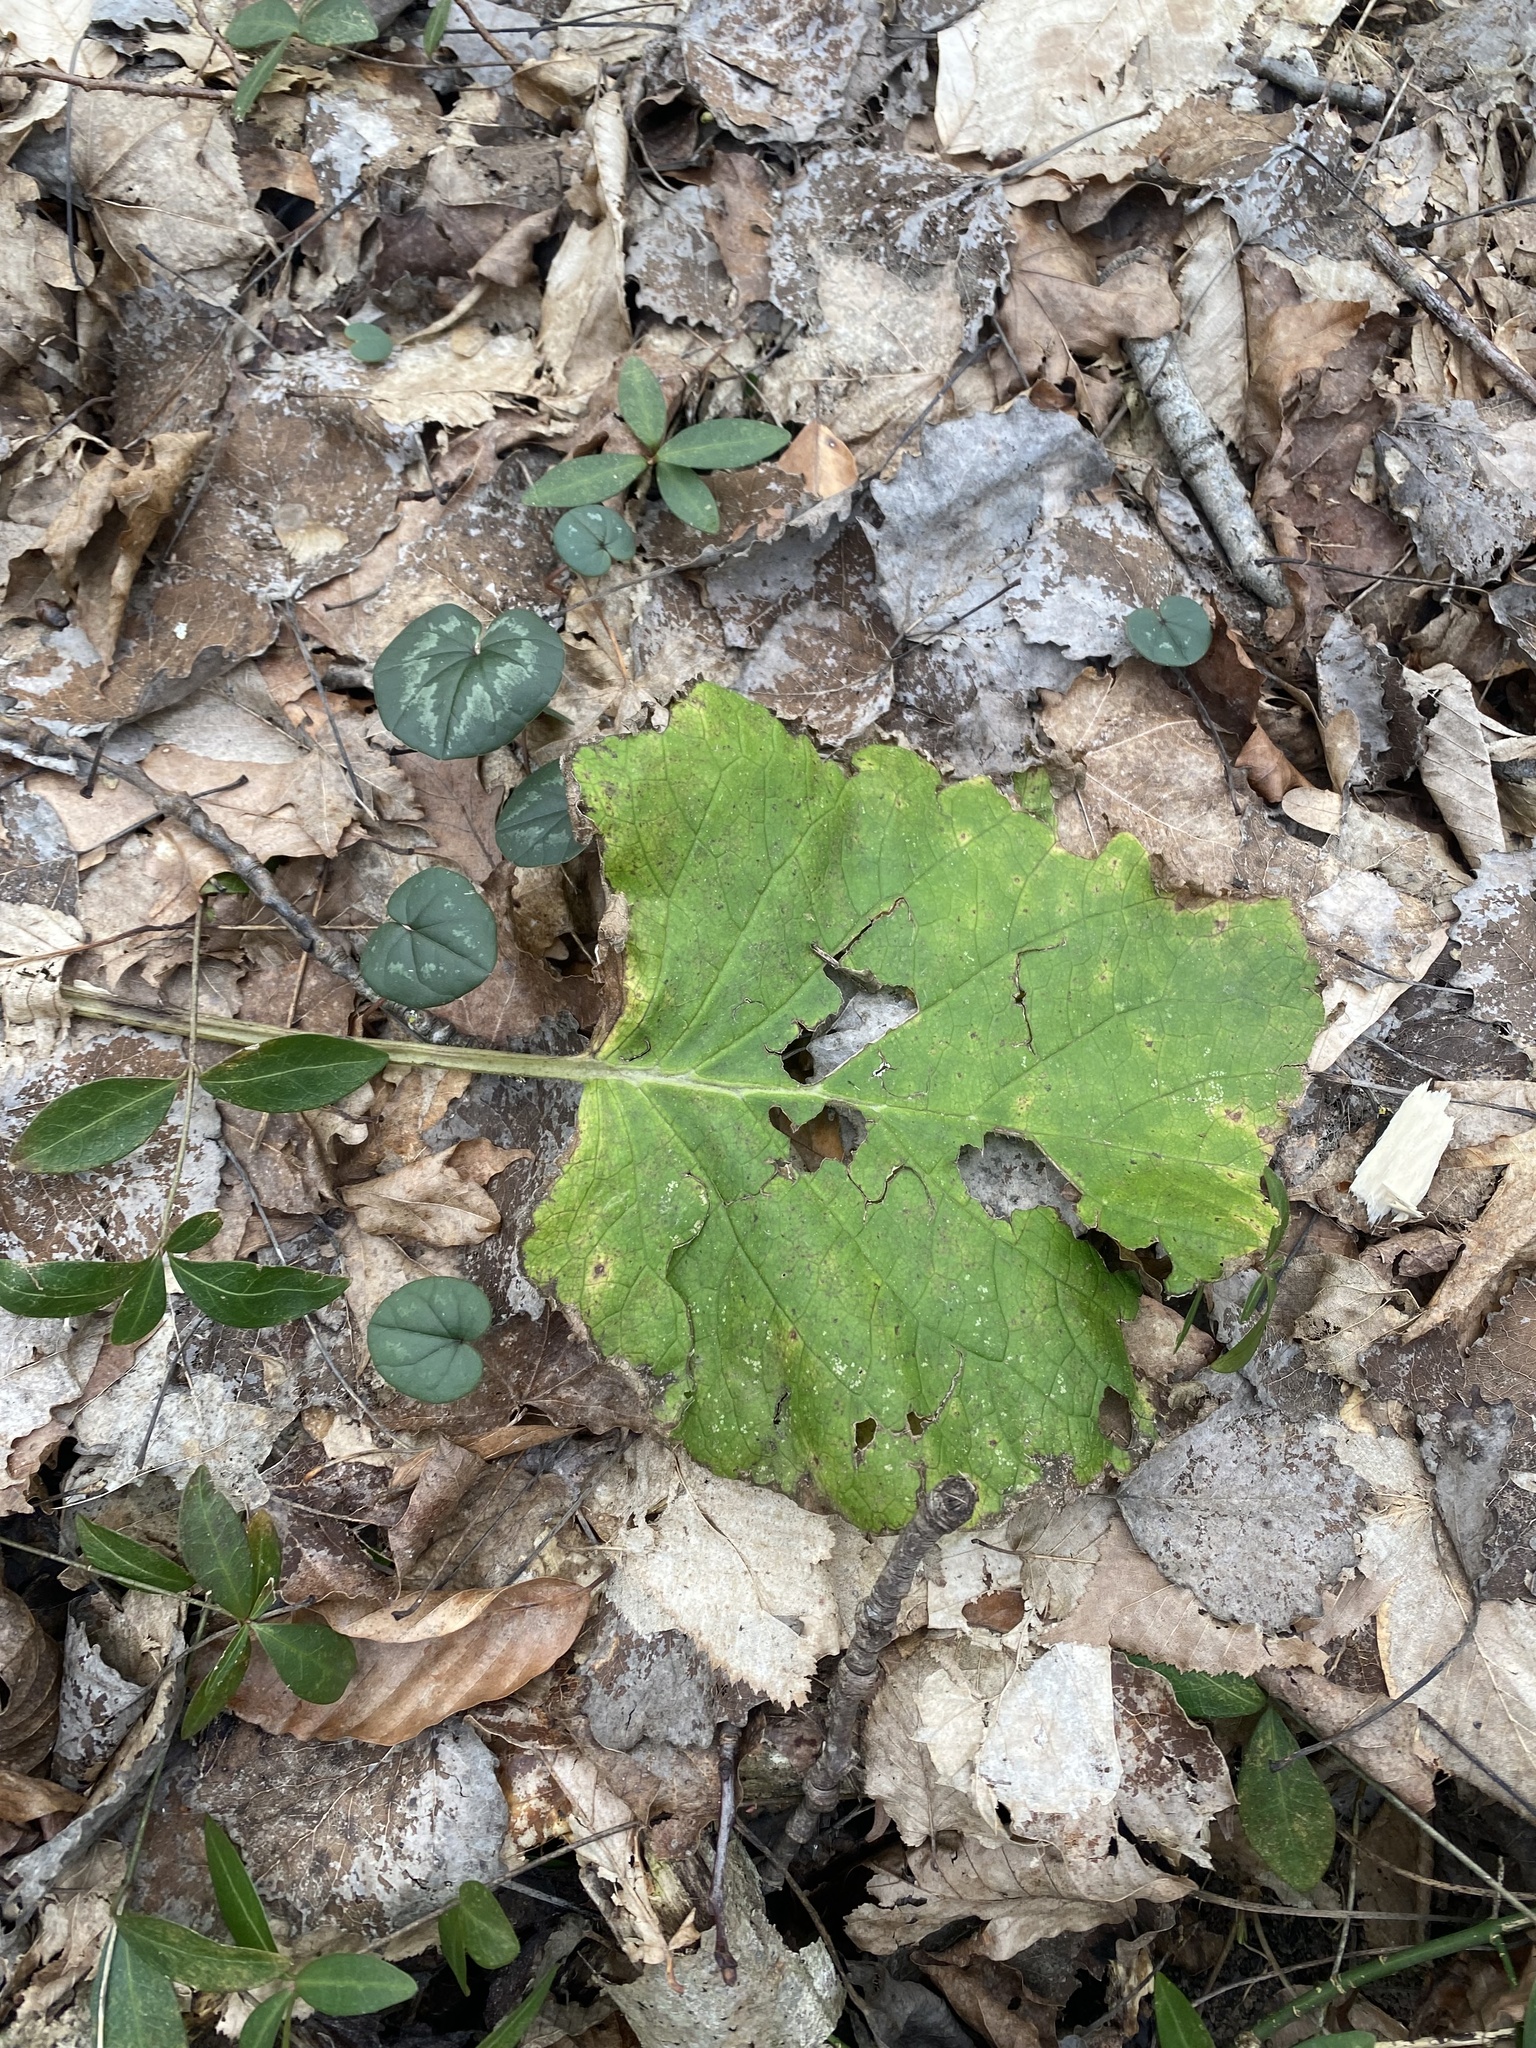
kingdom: Plantae
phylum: Tracheophyta
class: Magnoliopsida
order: Boraginales
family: Boraginaceae
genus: Trachystemon
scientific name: Trachystemon orientale
